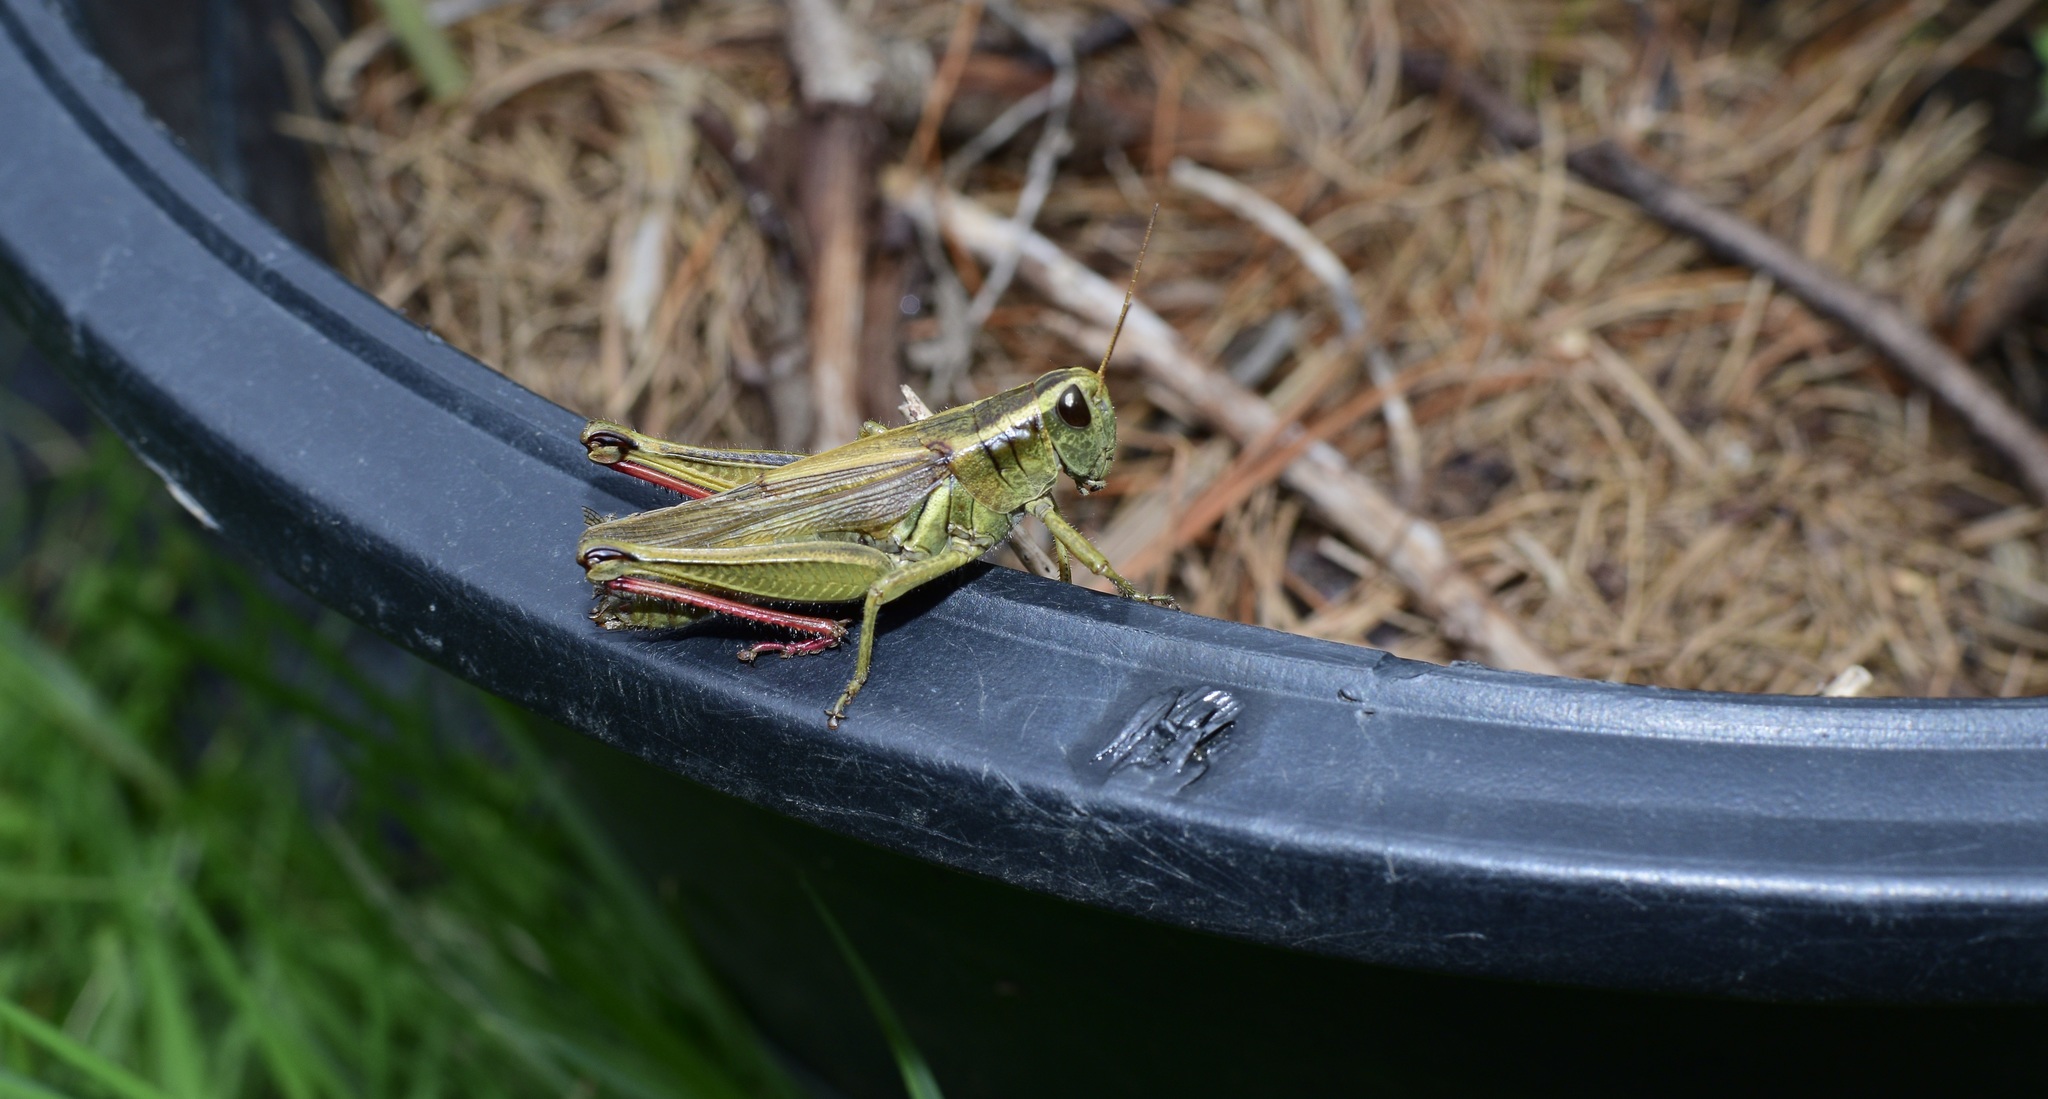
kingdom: Animalia
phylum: Arthropoda
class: Insecta
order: Orthoptera
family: Acrididae
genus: Melanoplus
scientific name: Melanoplus bivittatus
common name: Two-striped grasshopper
